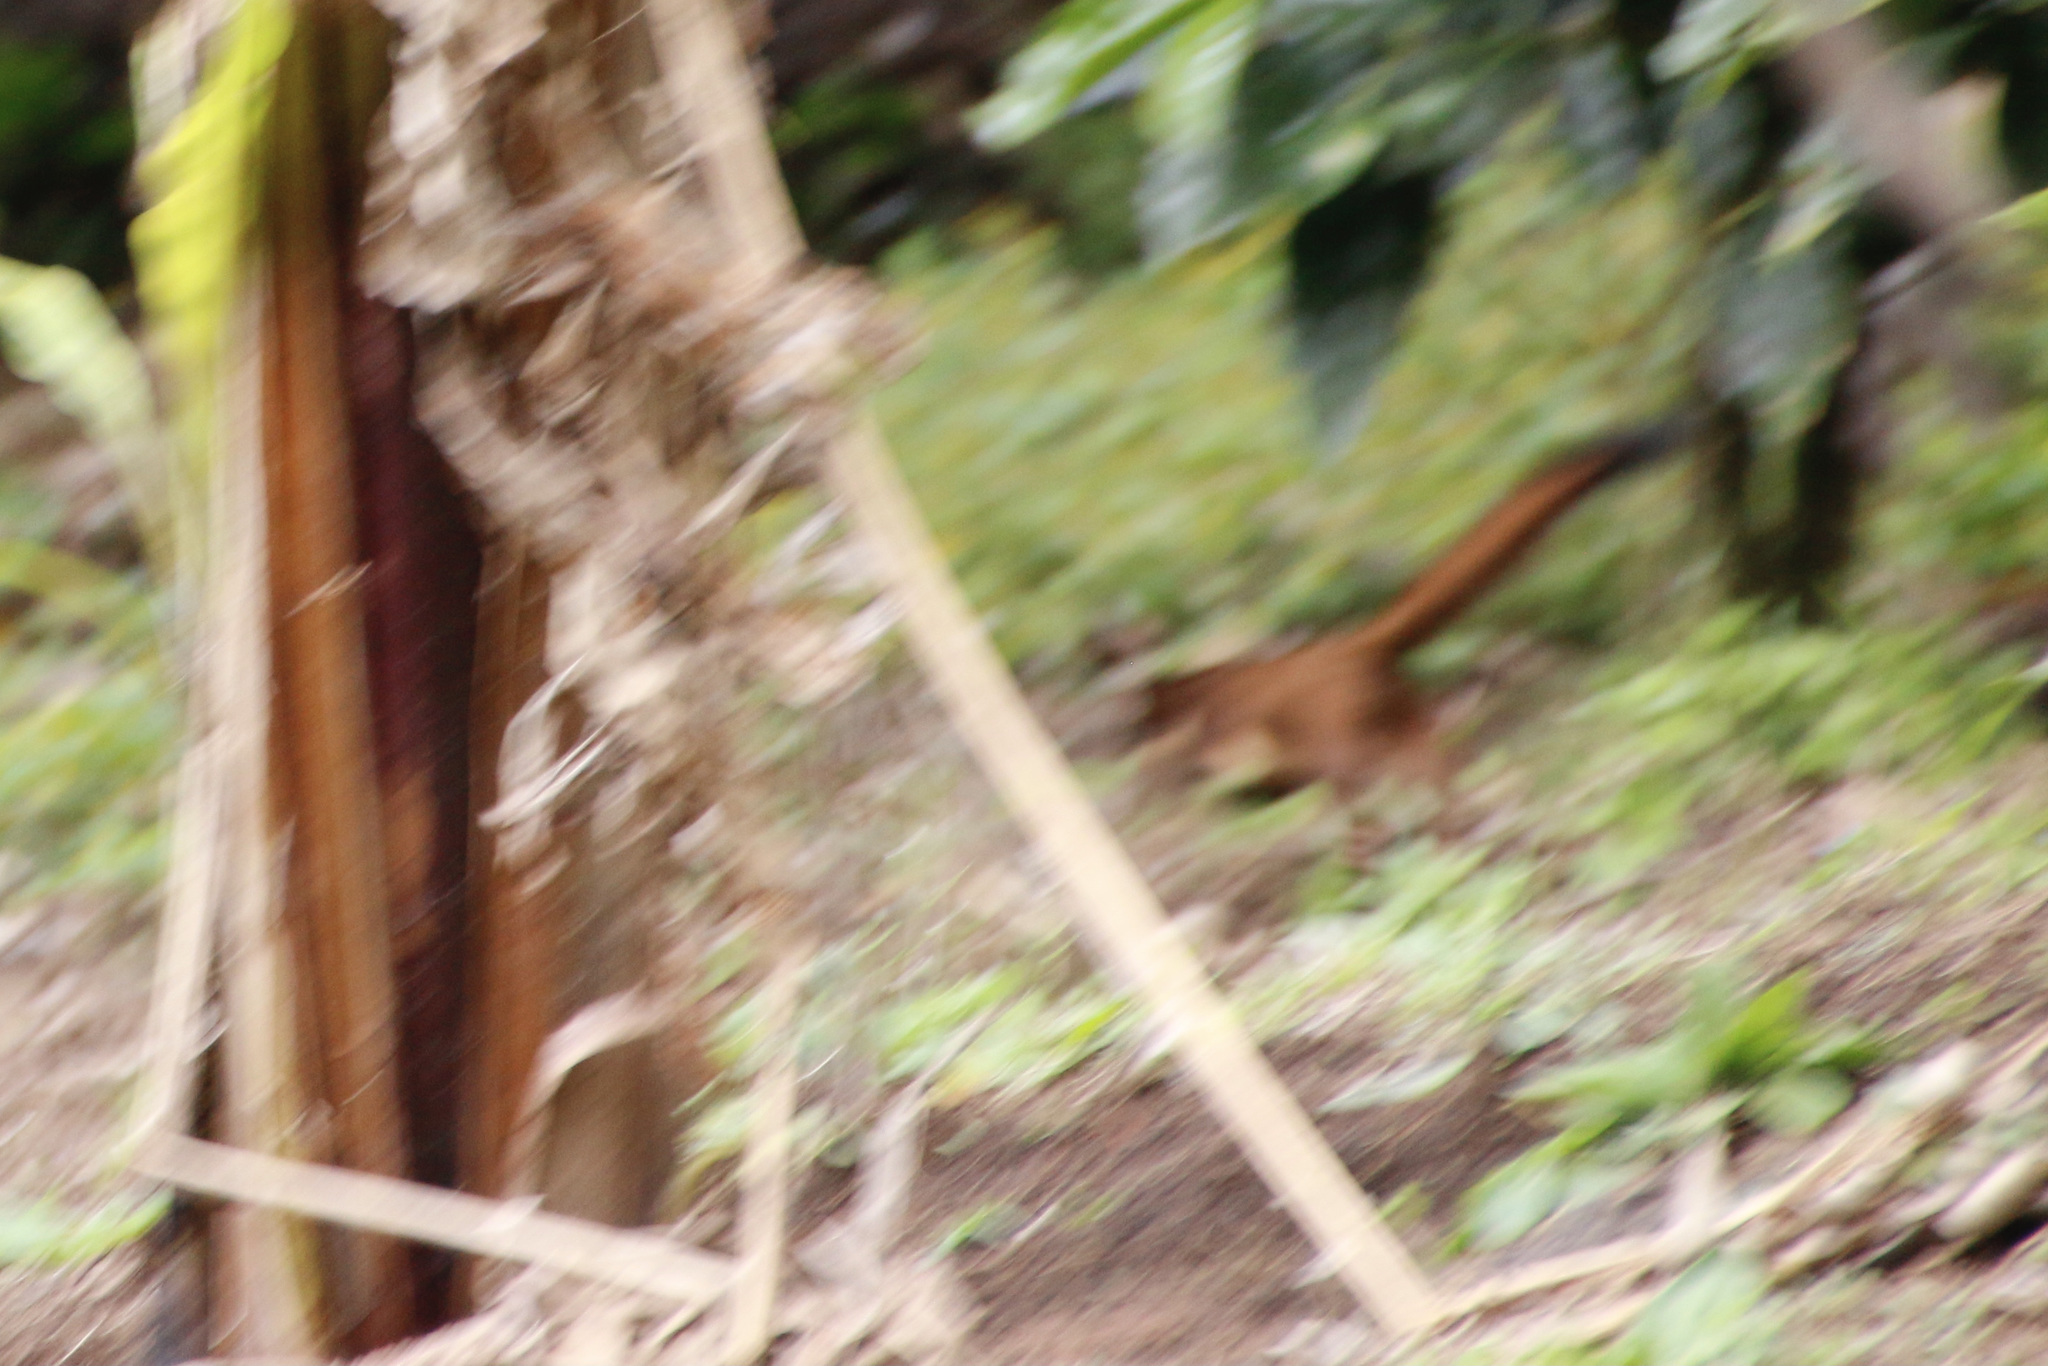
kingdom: Animalia
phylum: Chordata
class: Mammalia
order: Carnivora
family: Mustelidae
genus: Mustela
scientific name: Mustela
